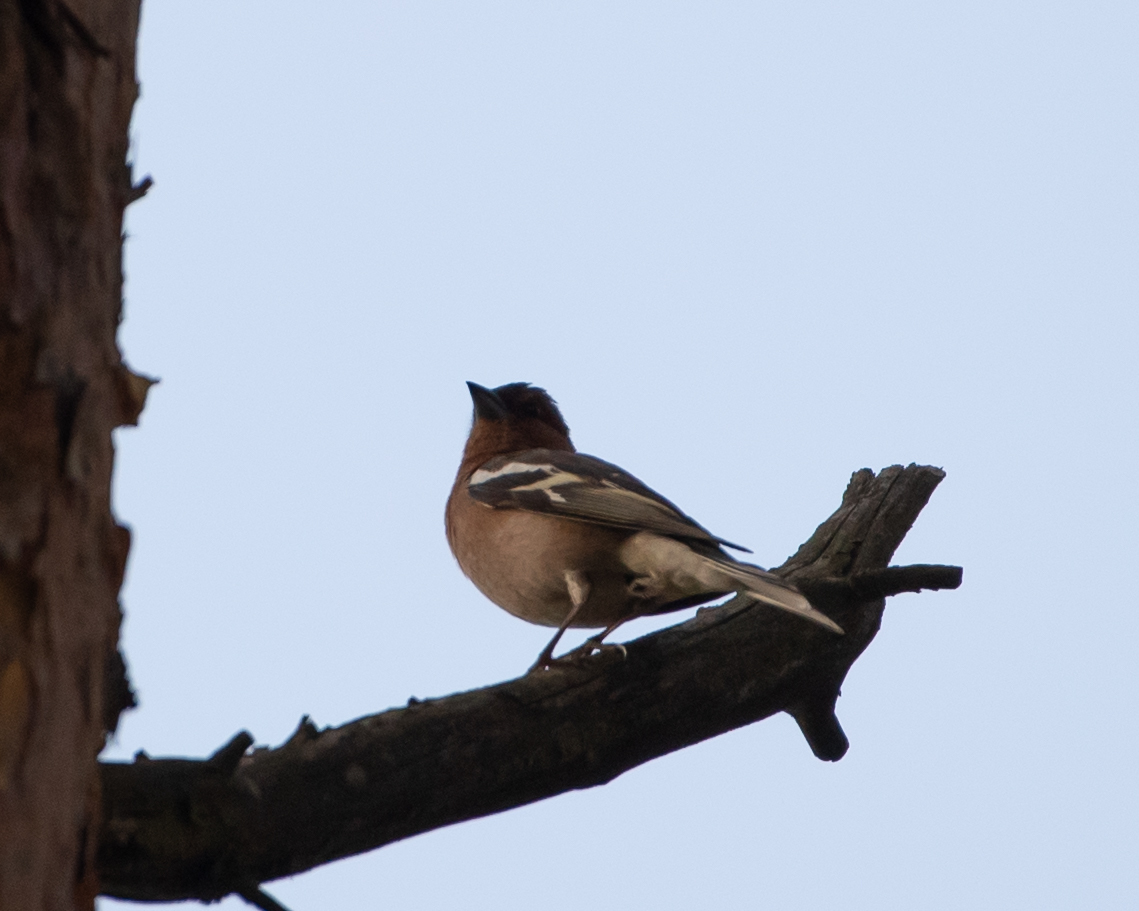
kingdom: Animalia
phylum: Chordata
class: Aves
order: Passeriformes
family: Fringillidae
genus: Fringilla
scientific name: Fringilla coelebs
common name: Common chaffinch
